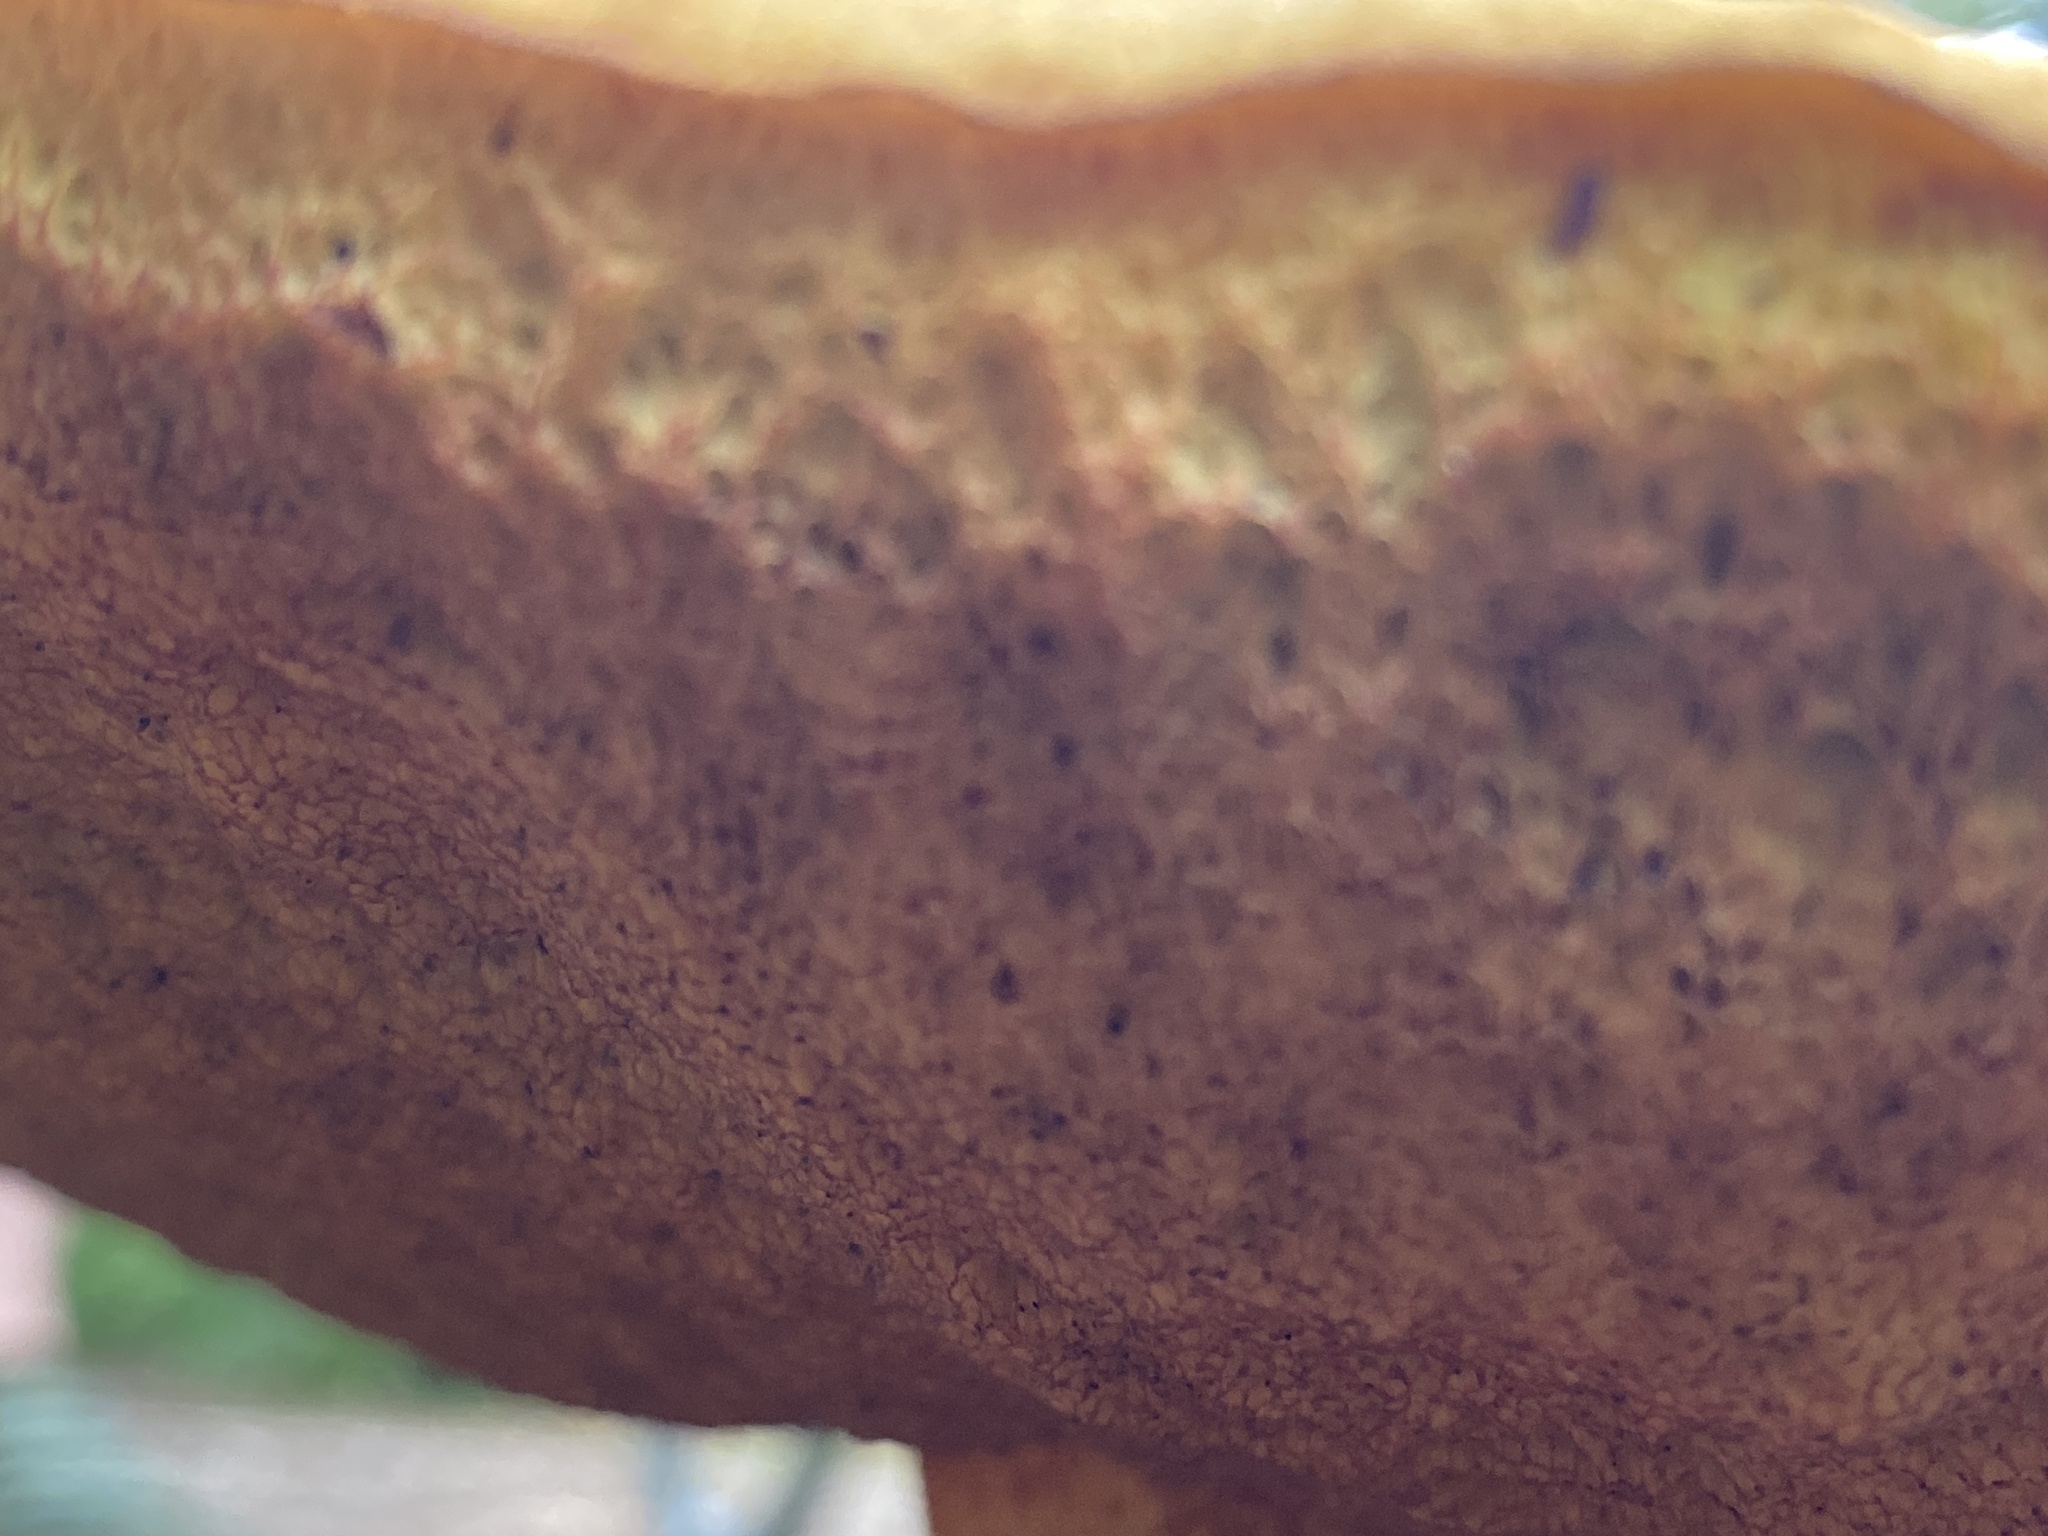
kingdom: Fungi
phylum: Basidiomycota
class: Agaricomycetes
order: Boletales
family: Boletaceae
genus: Suillellus
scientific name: Suillellus luridus
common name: Lurid bolete
